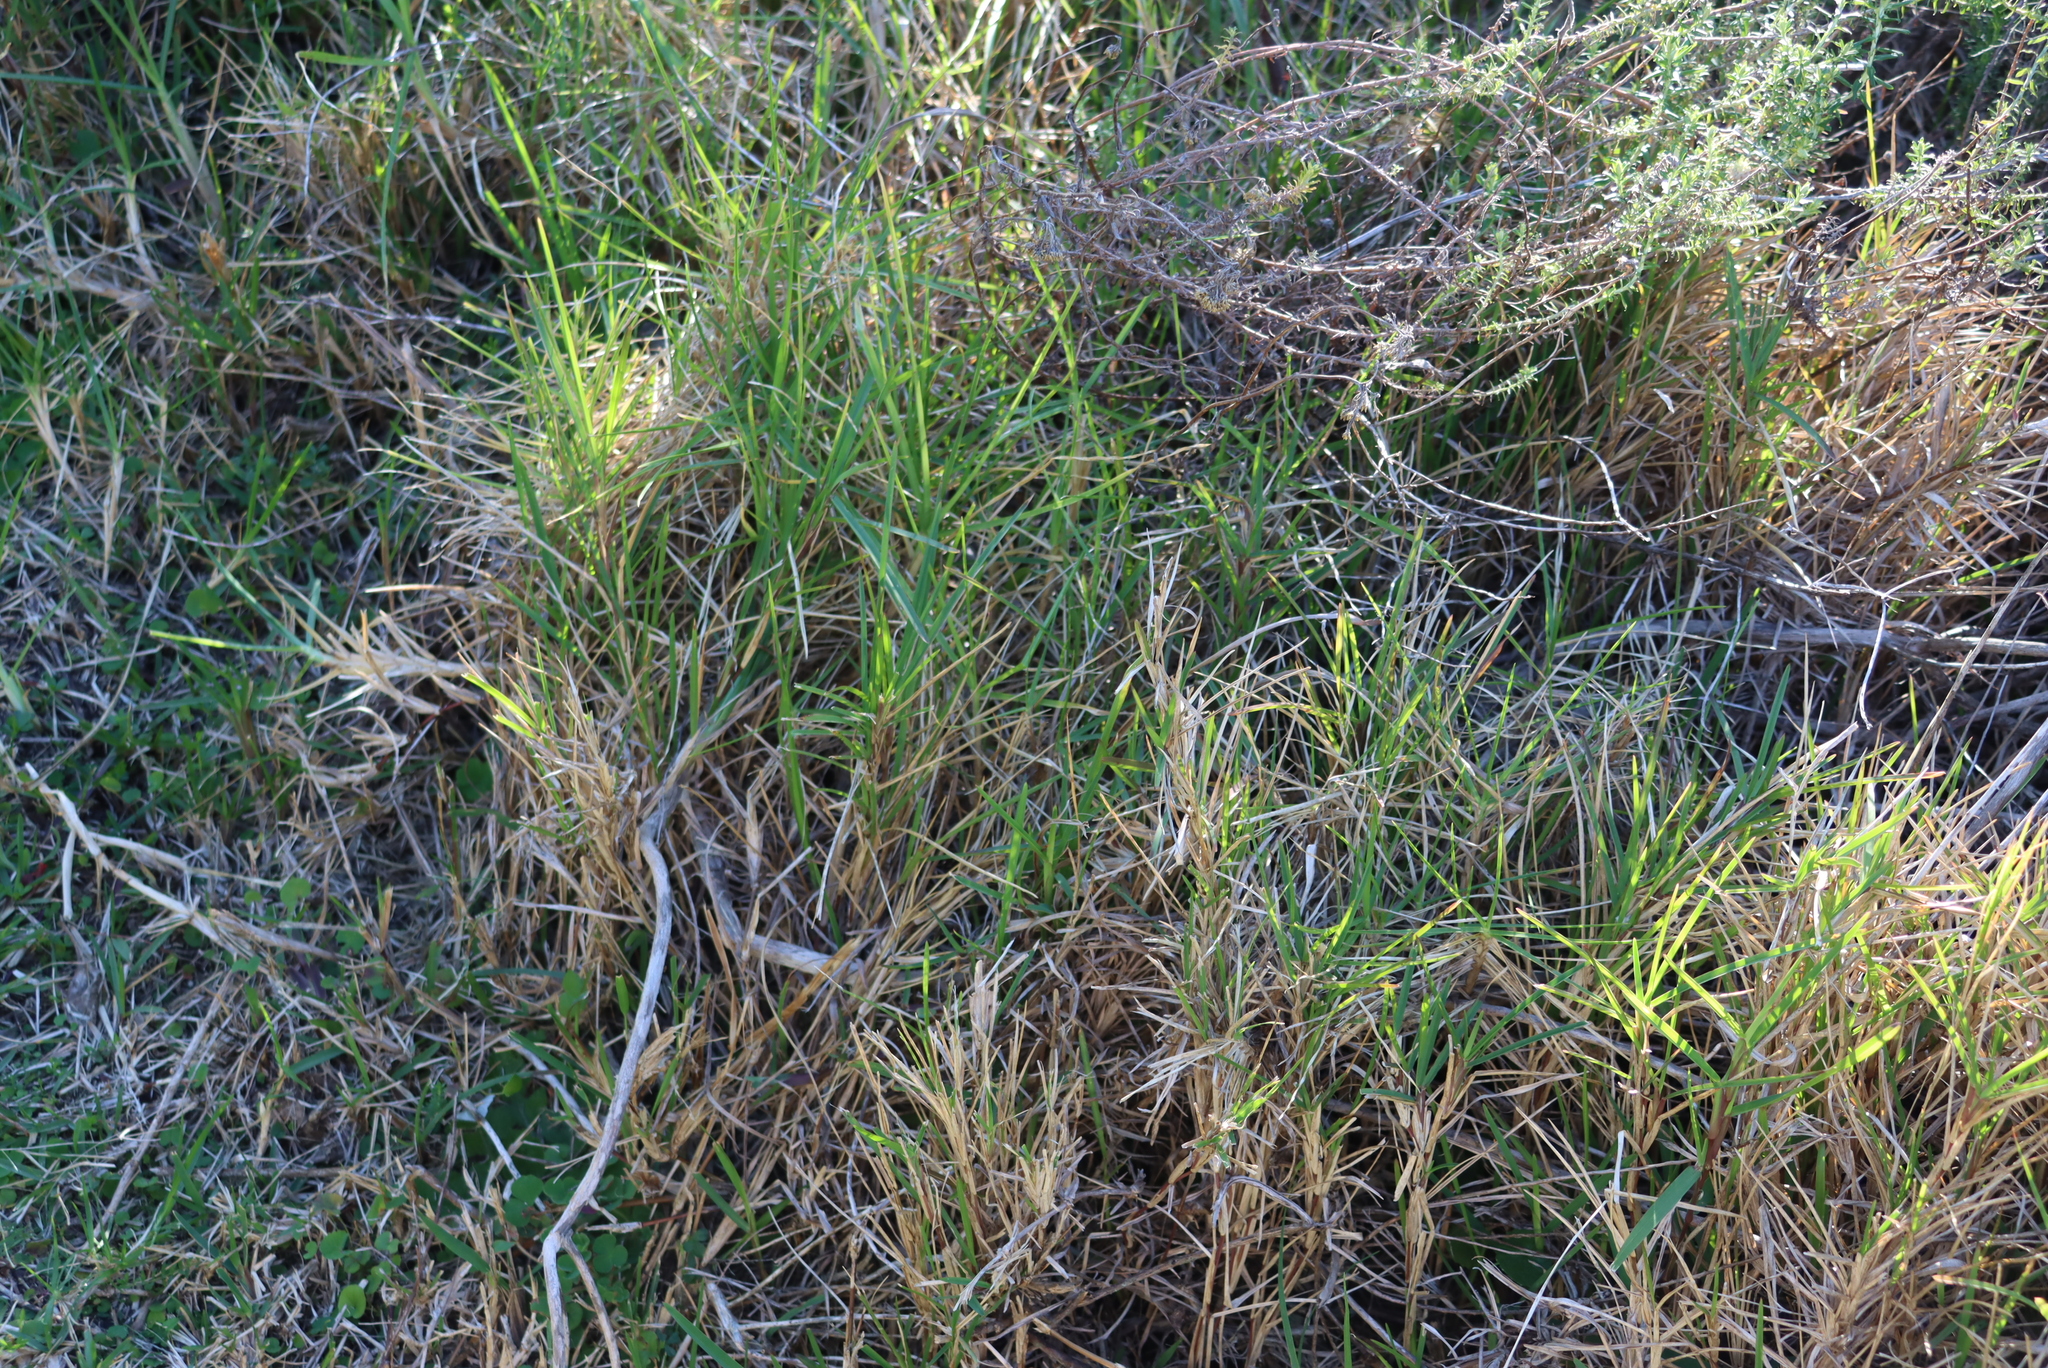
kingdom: Plantae
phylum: Tracheophyta
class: Liliopsida
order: Poales
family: Poaceae
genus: Stenotaphrum
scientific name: Stenotaphrum secundatum
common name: St. augustine grass
